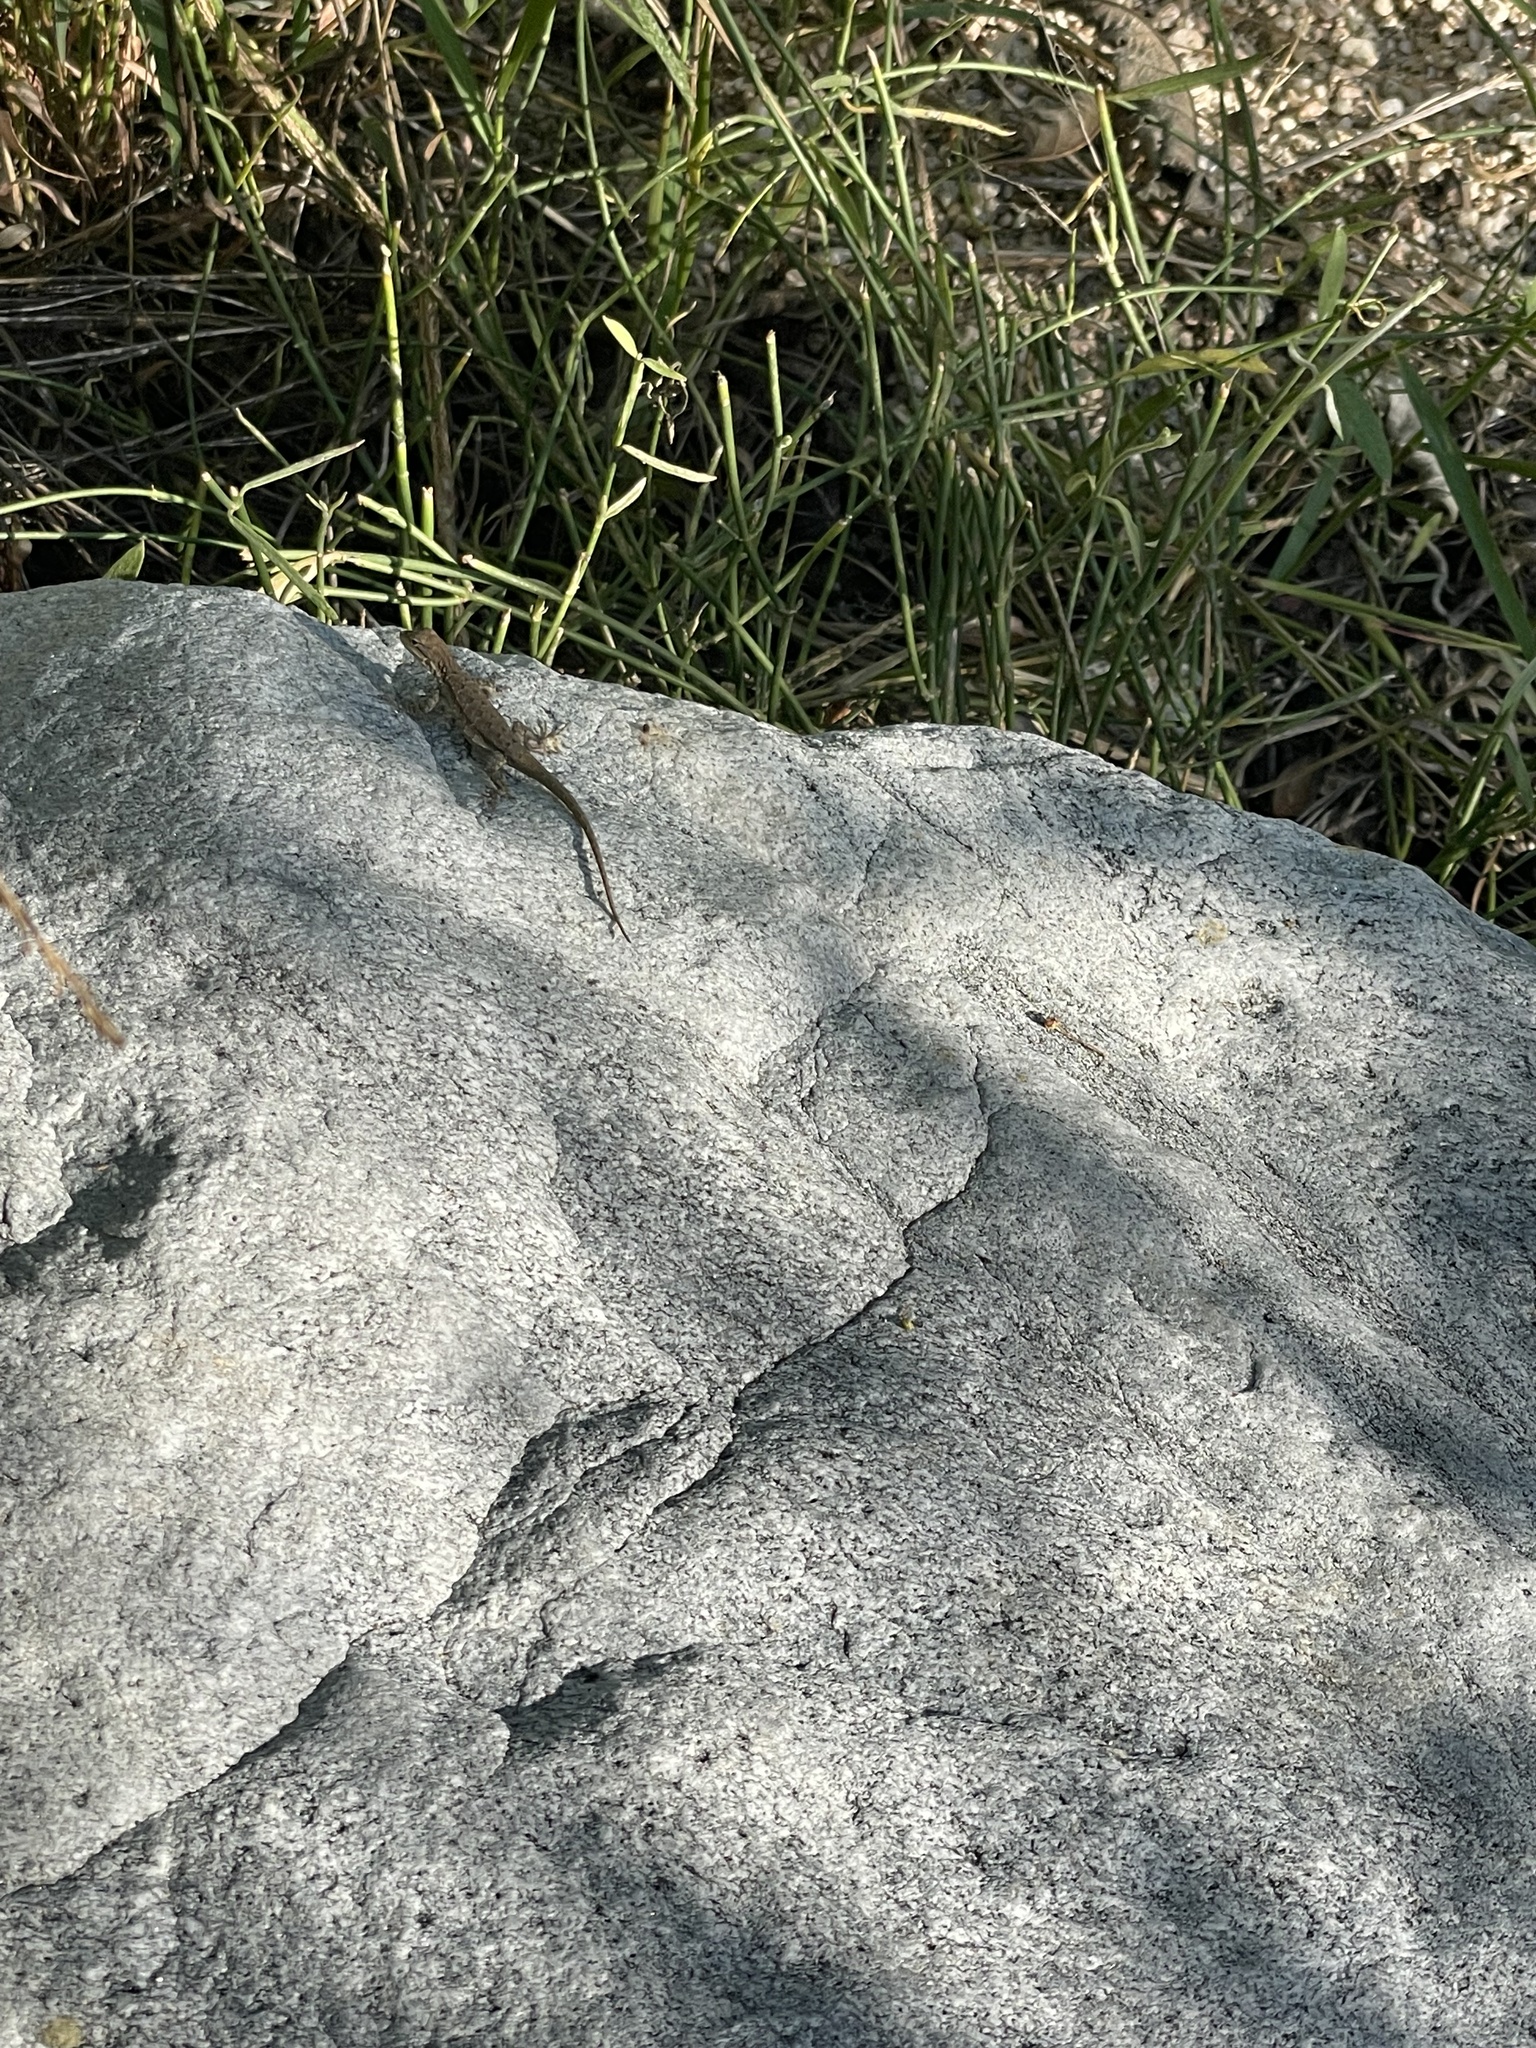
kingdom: Animalia
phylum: Chordata
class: Squamata
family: Phrynosomatidae
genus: Urosaurus
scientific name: Urosaurus nigricauda
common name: Baja california brush lizard
